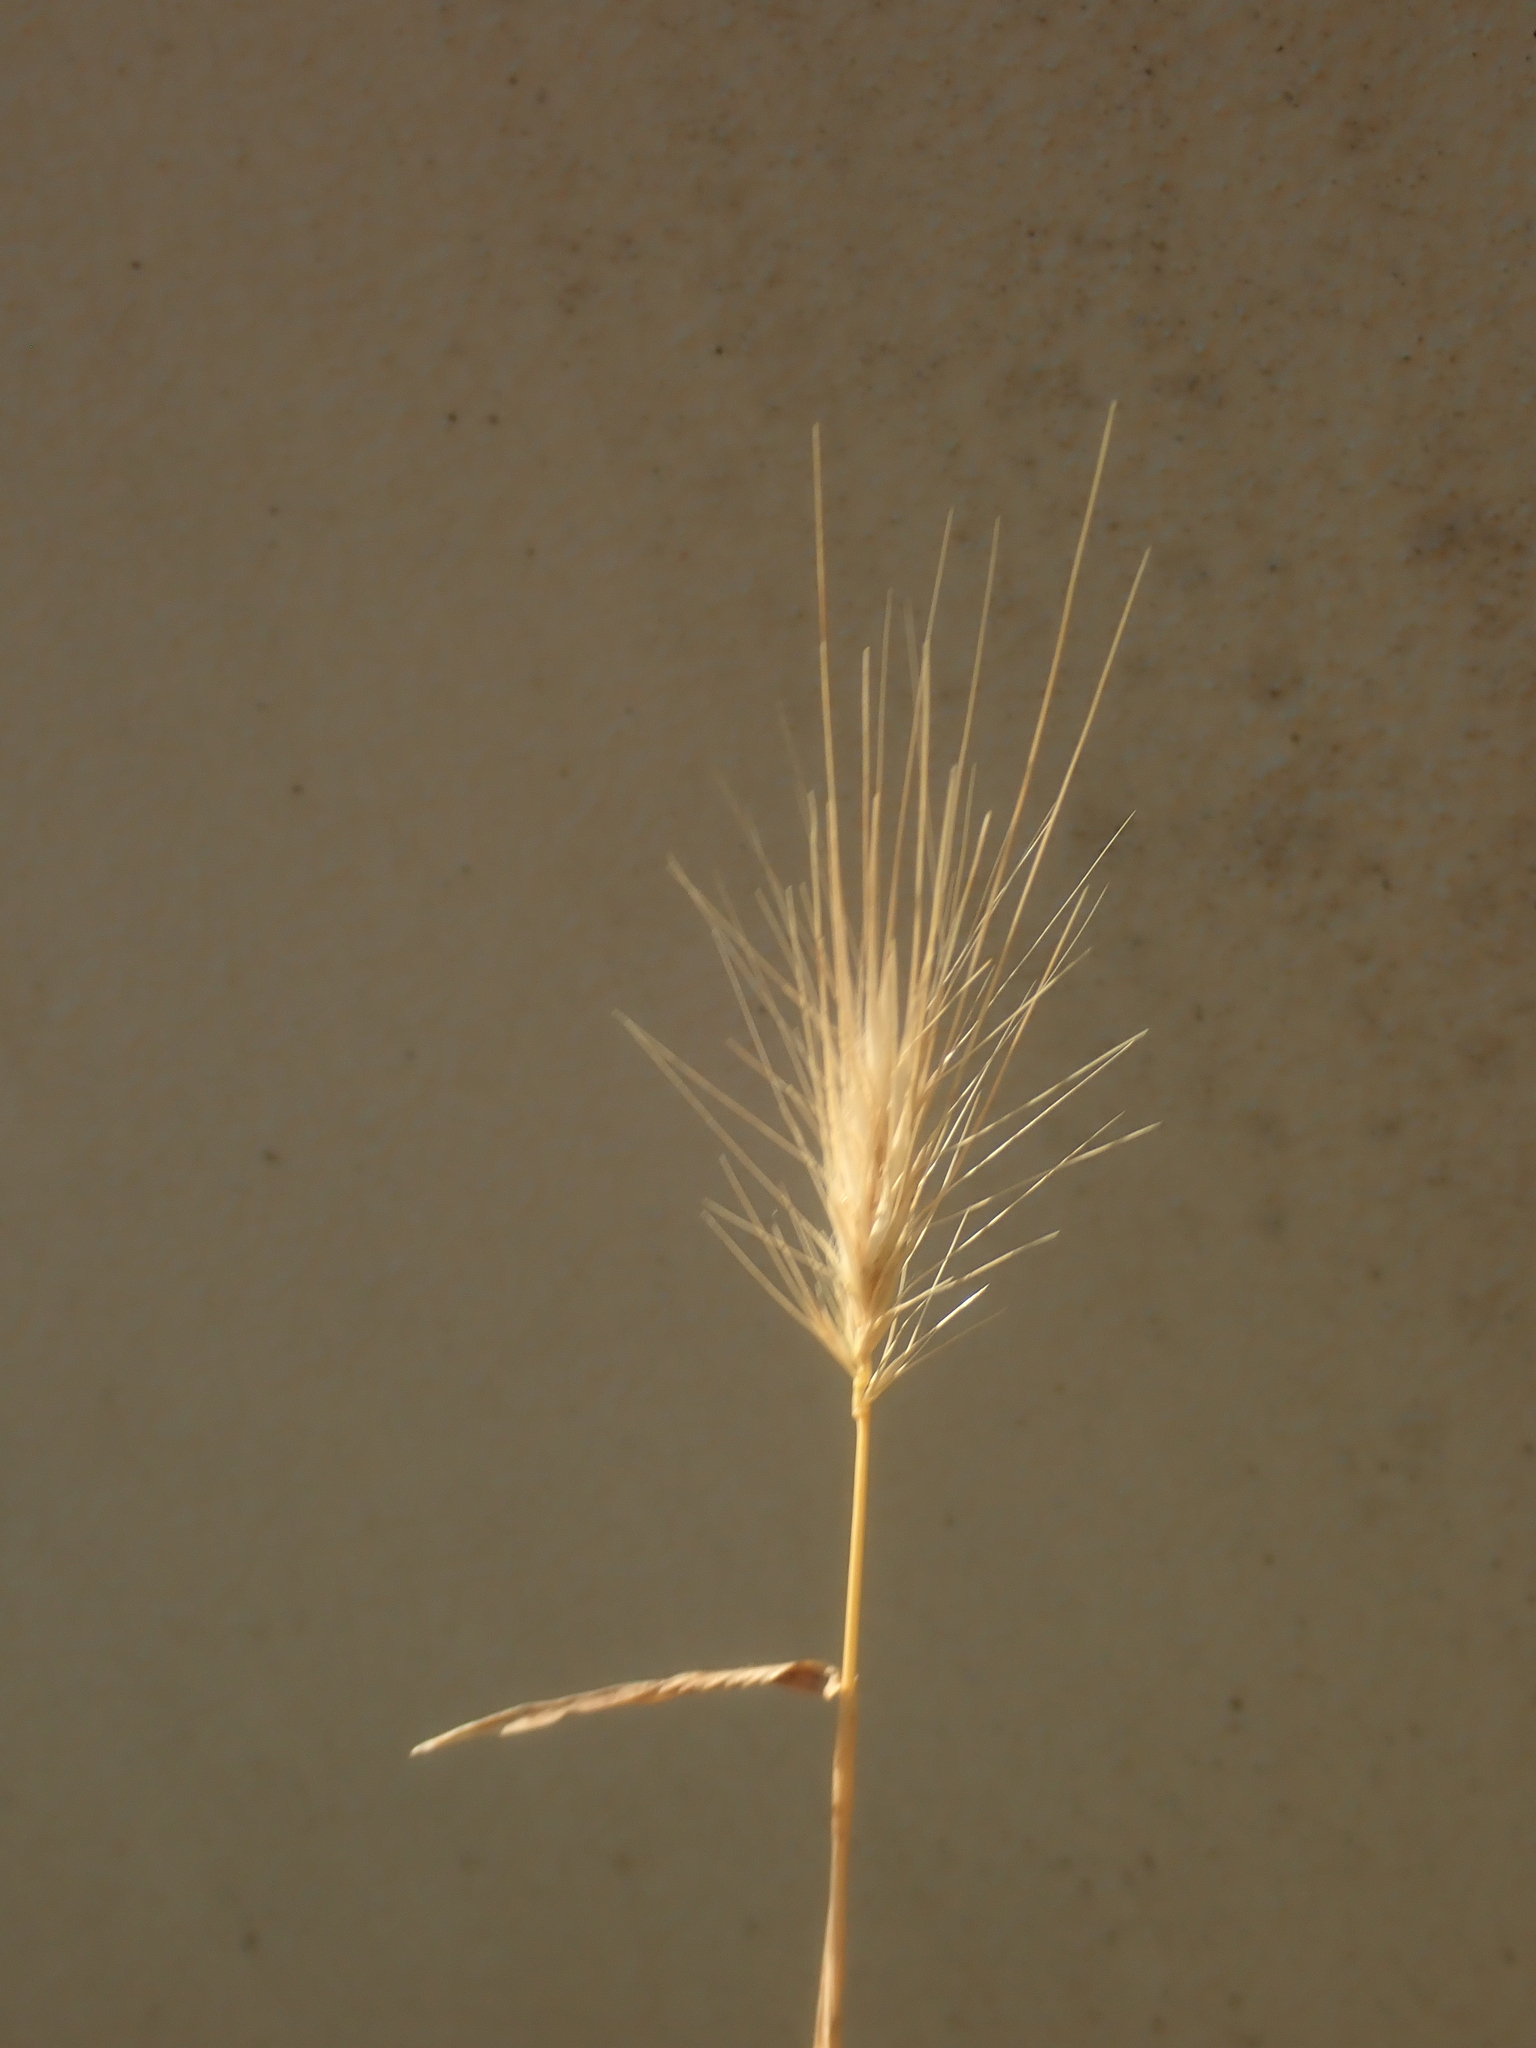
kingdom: Plantae
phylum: Tracheophyta
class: Liliopsida
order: Poales
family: Poaceae
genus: Hordeum
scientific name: Hordeum murinum
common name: Wall barley
